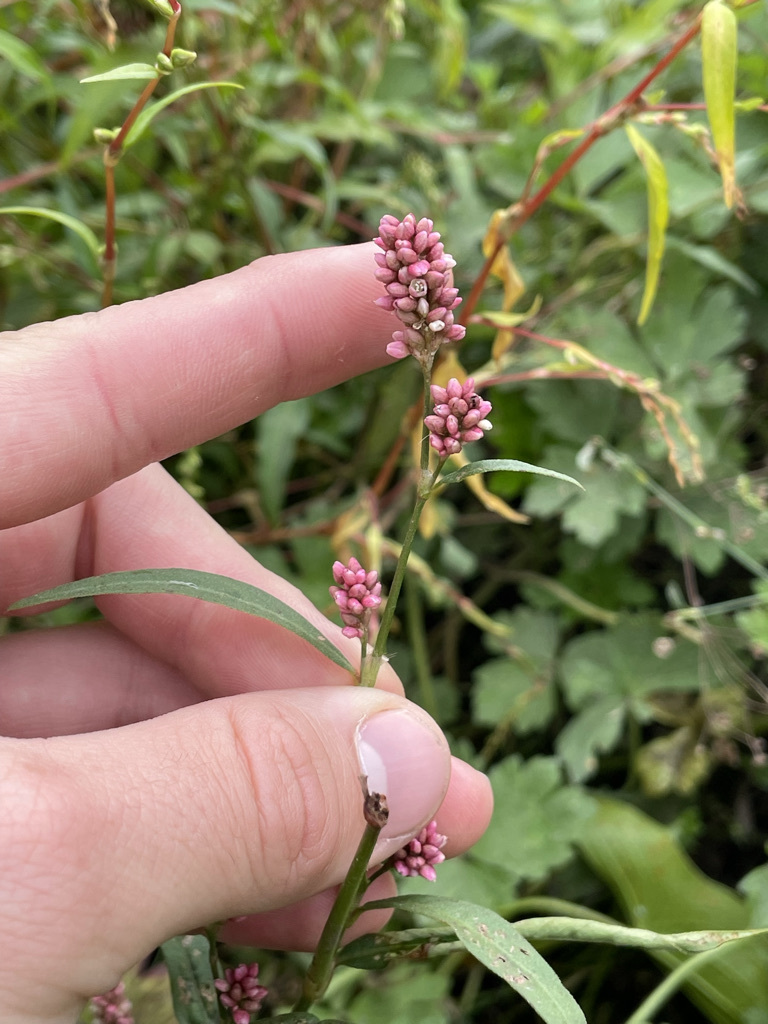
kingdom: Plantae
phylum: Tracheophyta
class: Magnoliopsida
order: Caryophyllales
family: Polygonaceae
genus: Persicaria
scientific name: Persicaria maculosa
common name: Redshank
